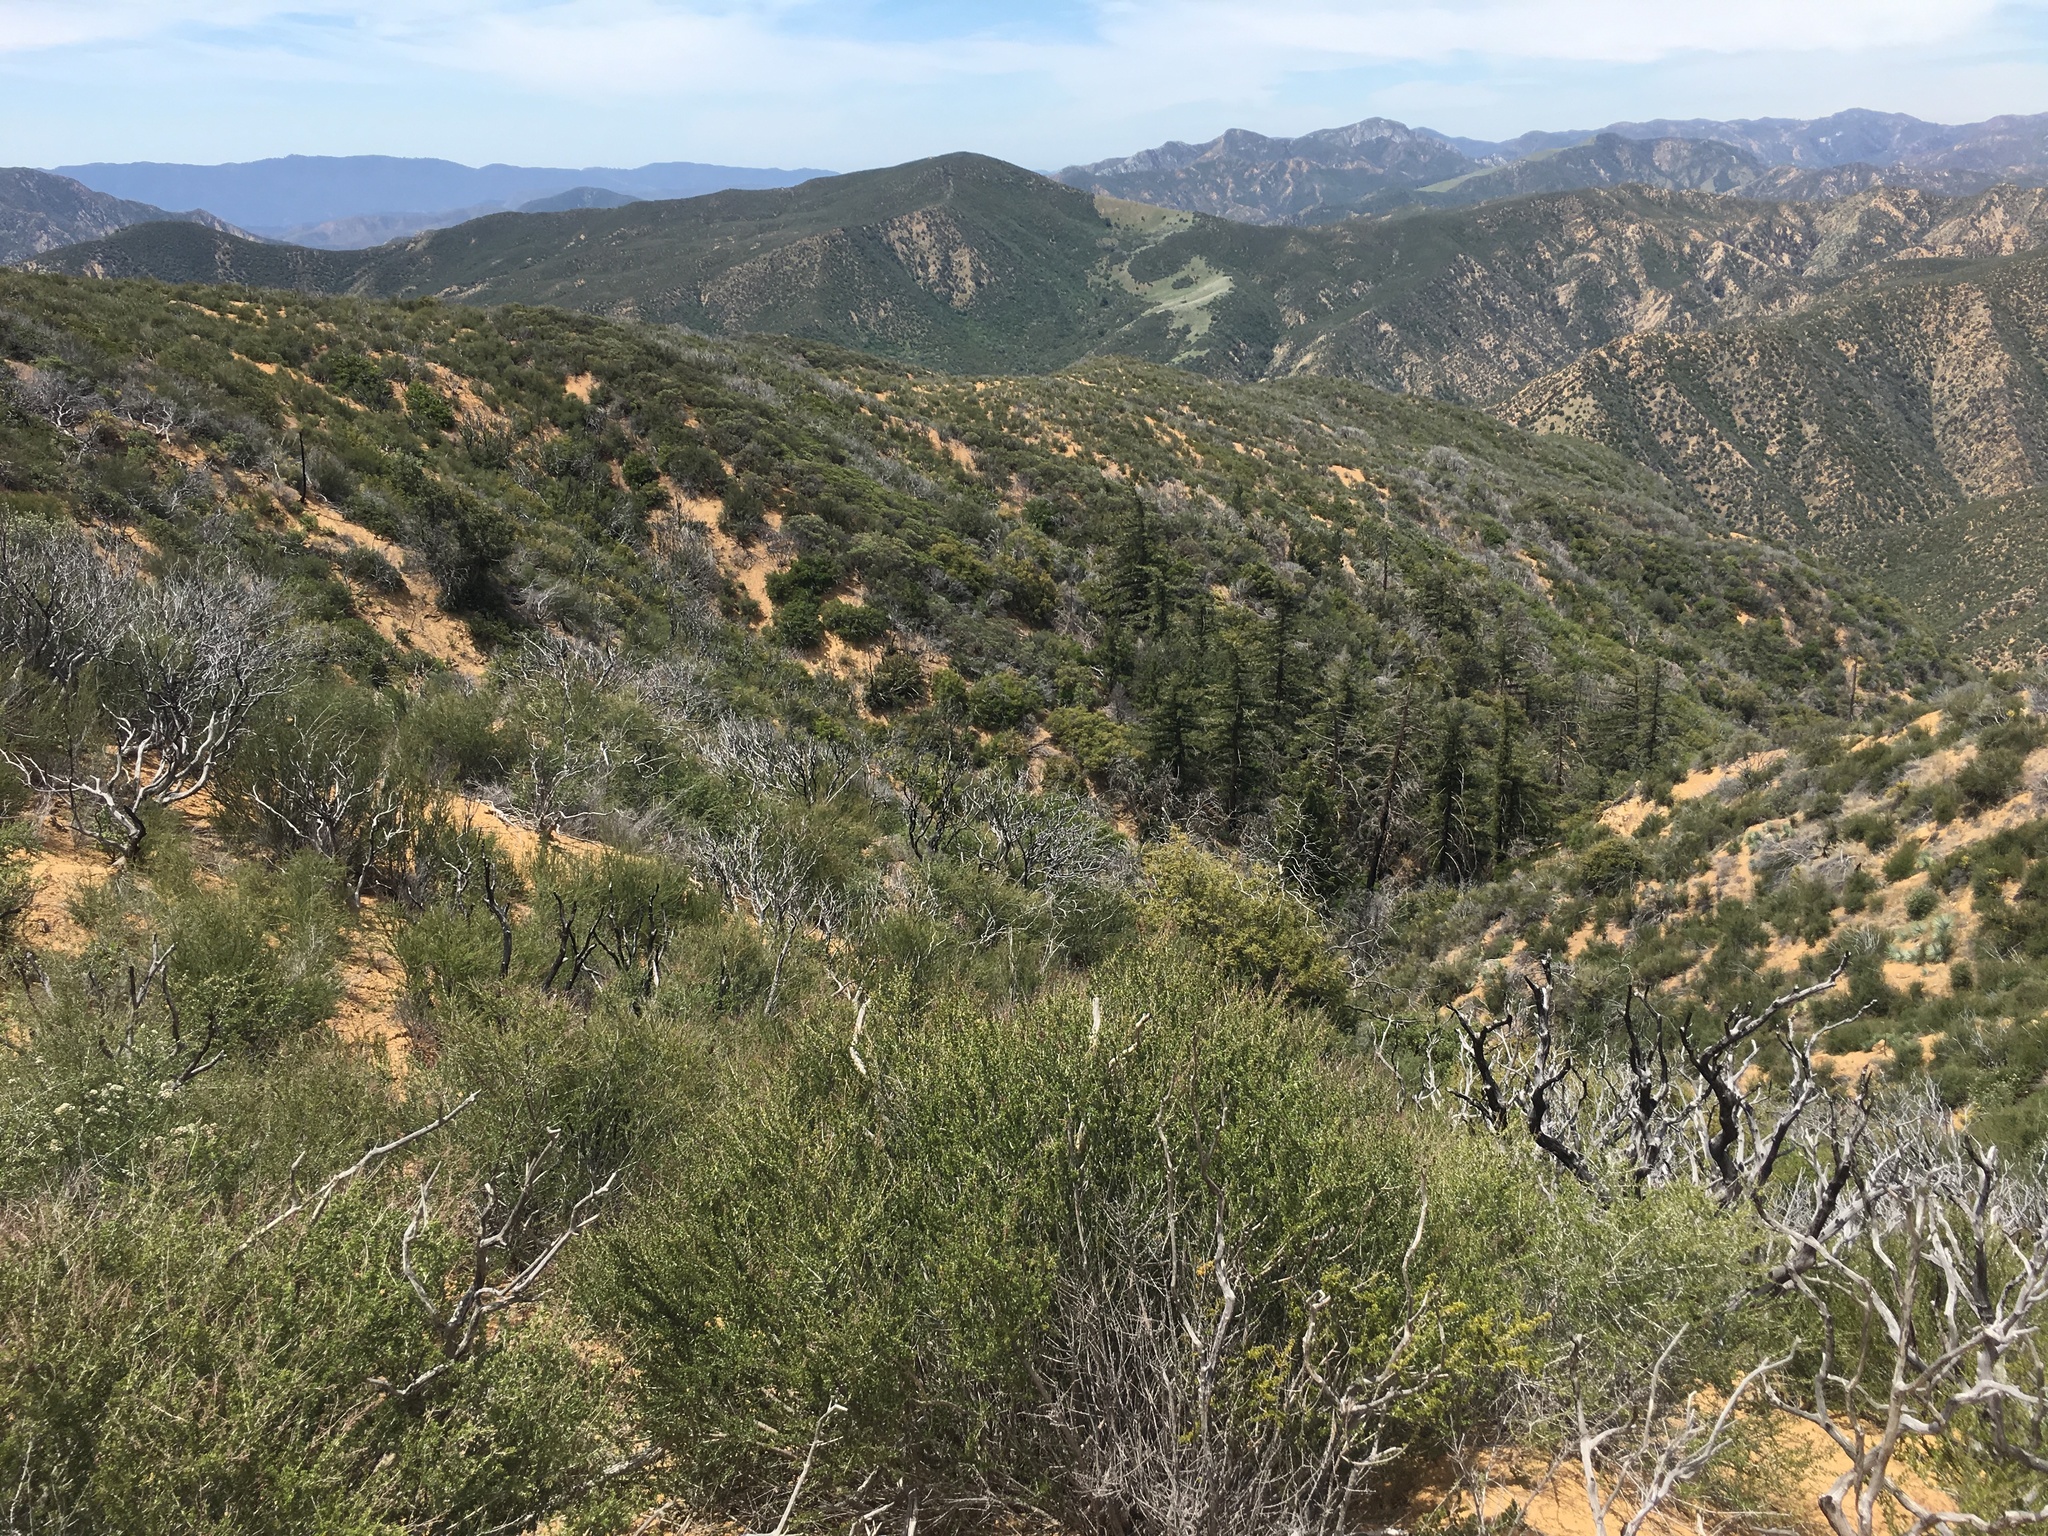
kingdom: Plantae
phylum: Tracheophyta
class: Magnoliopsida
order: Rosales
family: Rosaceae
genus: Adenostoma
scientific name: Adenostoma fasciculatum
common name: Chamise
